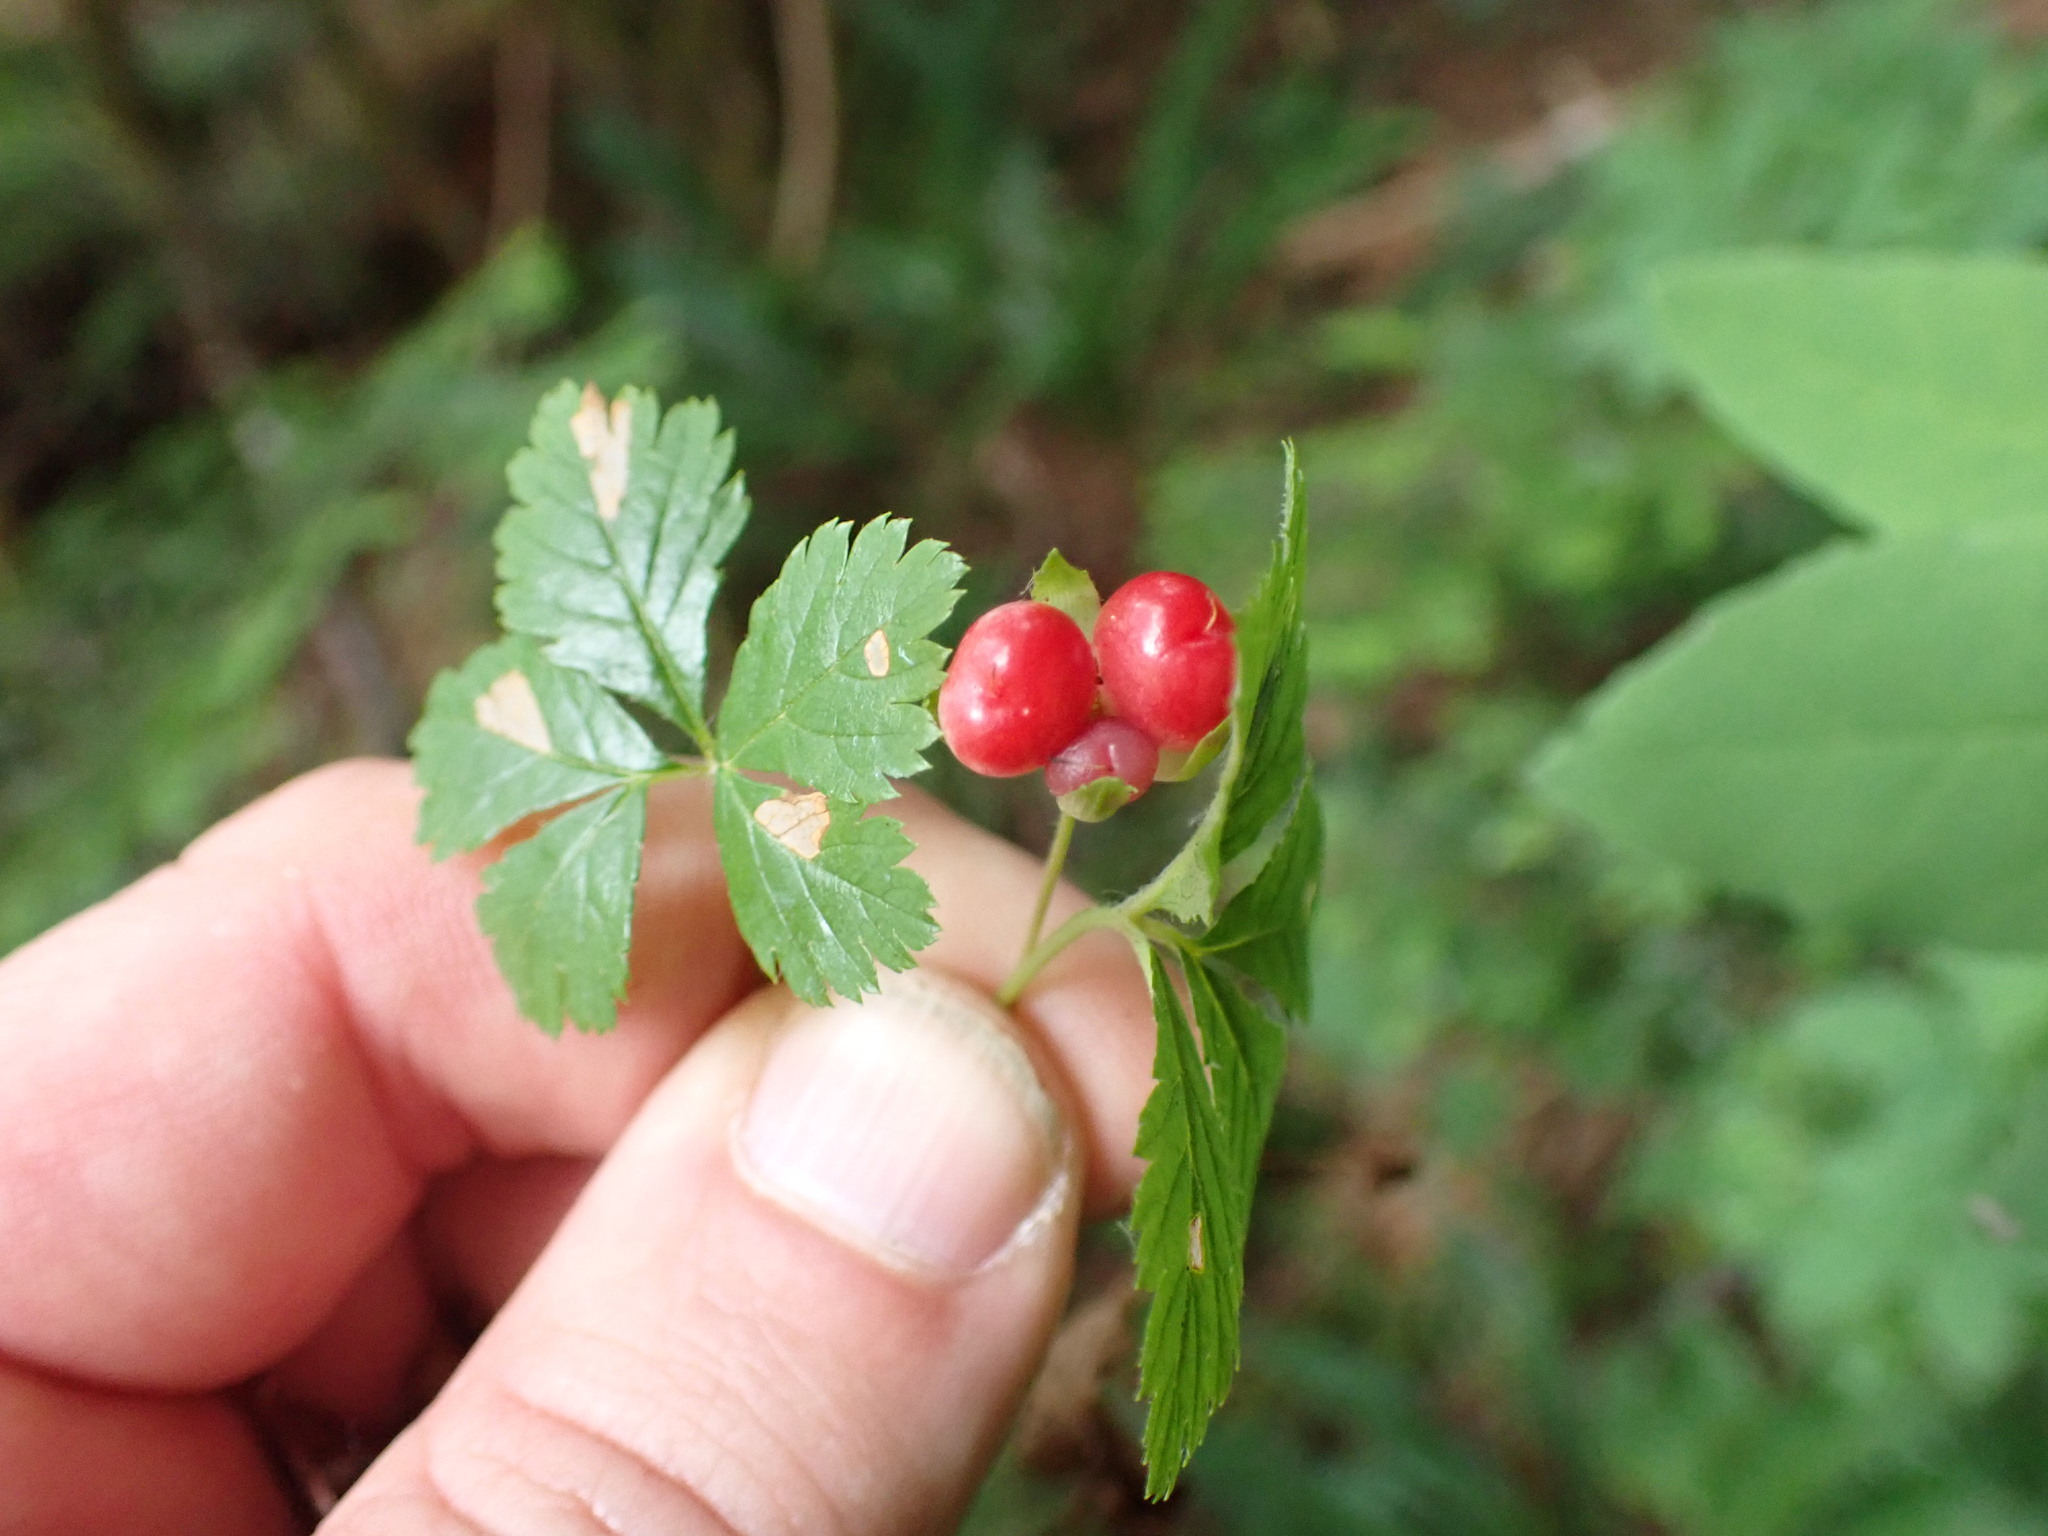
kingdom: Plantae
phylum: Tracheophyta
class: Magnoliopsida
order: Rosales
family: Rosaceae
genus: Rubus
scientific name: Rubus pedatus
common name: Creeping raspberry
